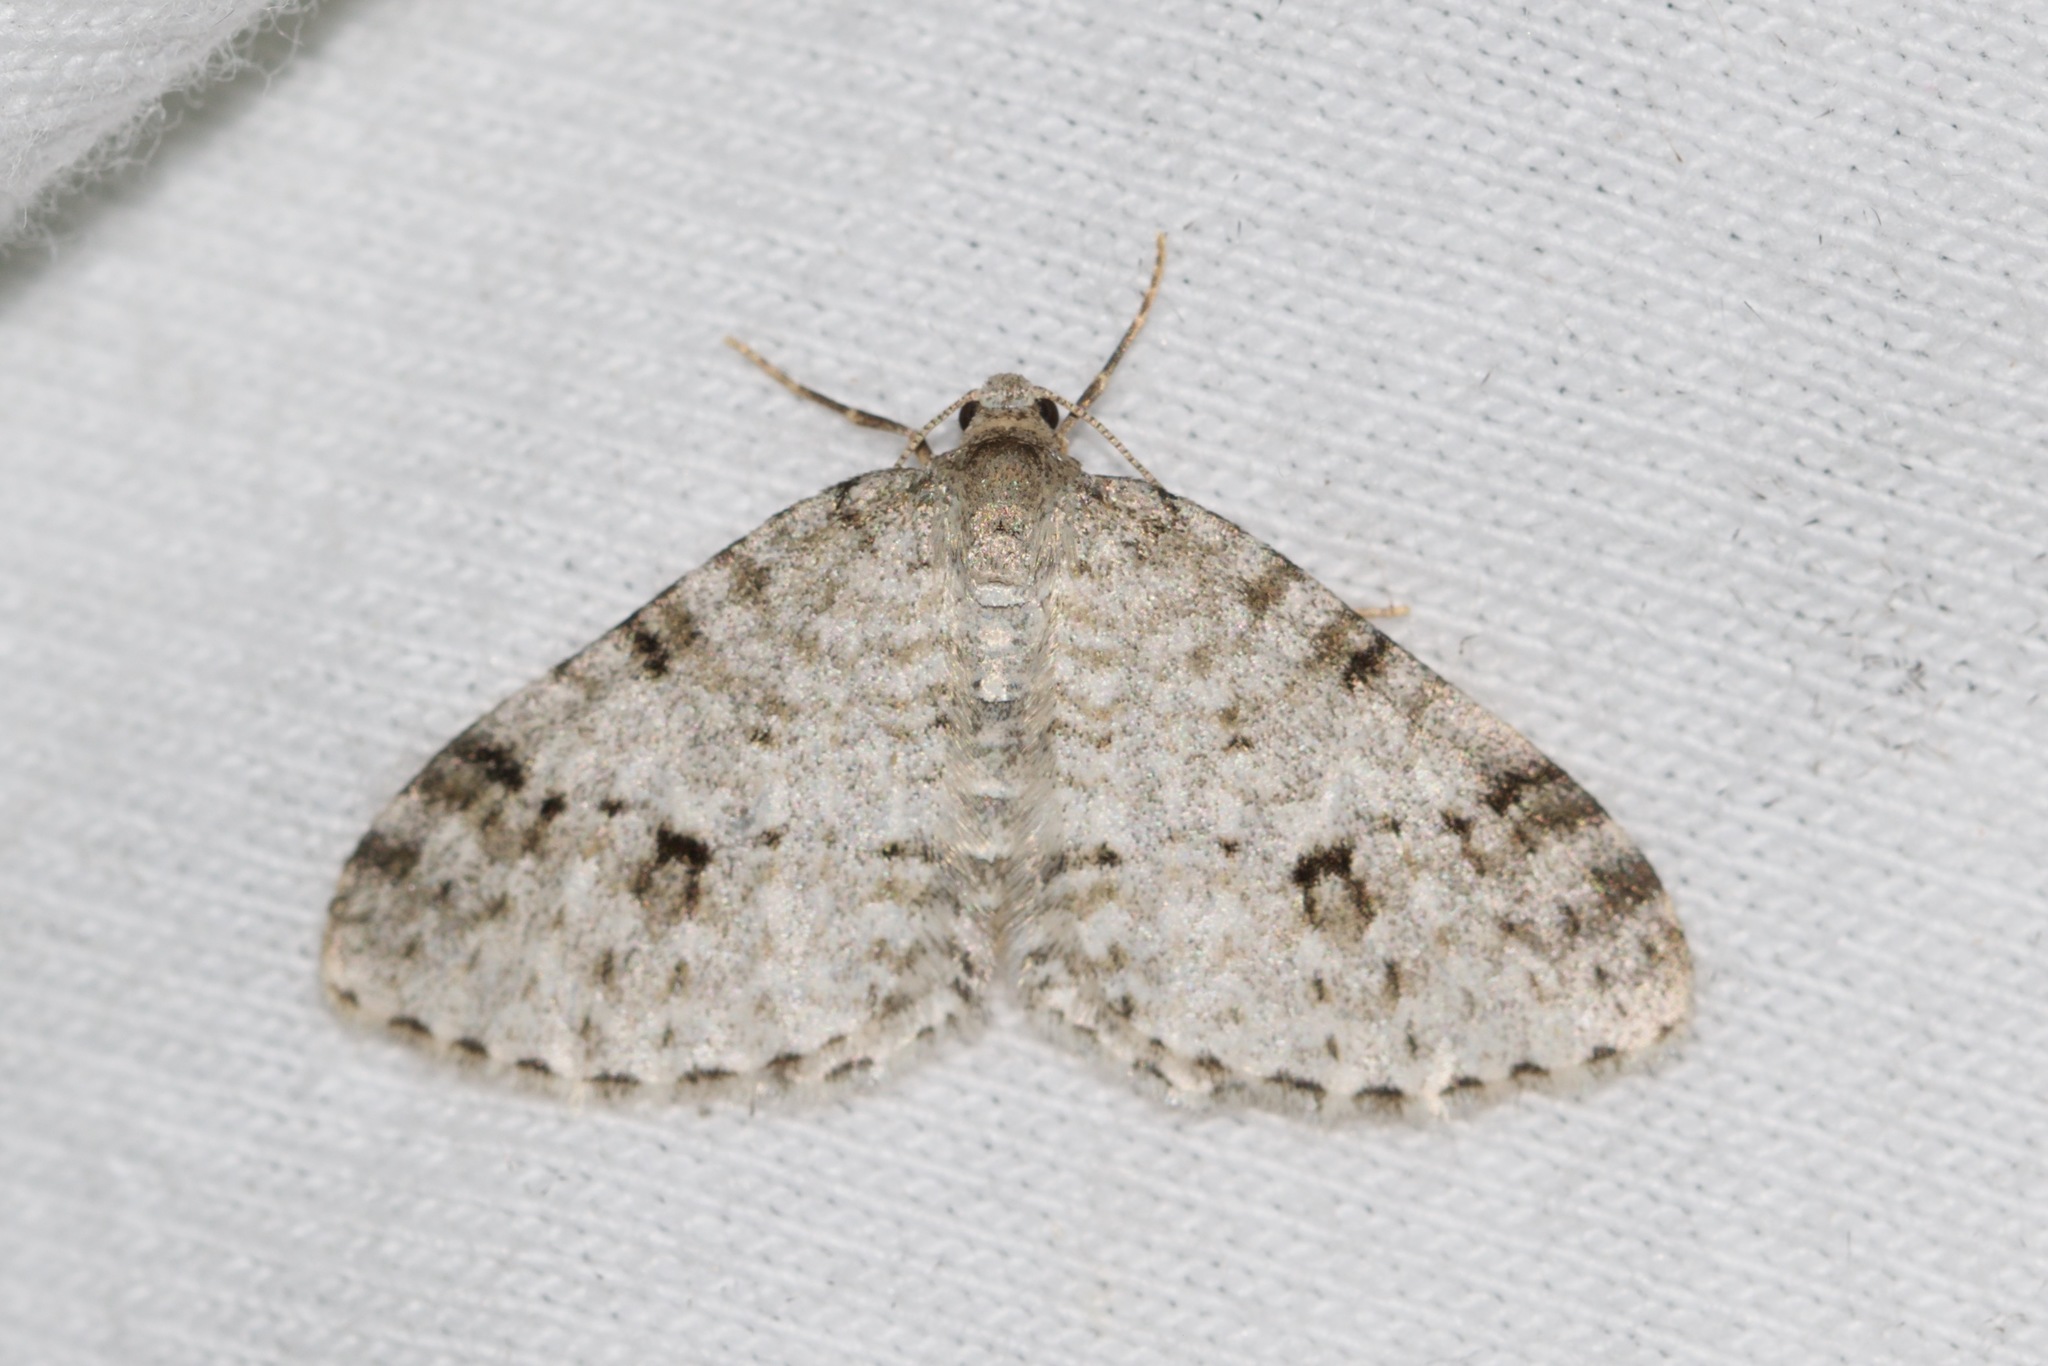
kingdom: Animalia
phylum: Arthropoda
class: Insecta
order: Lepidoptera
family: Geometridae
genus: Venusia
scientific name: Venusia cambrica
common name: Welsh wave
